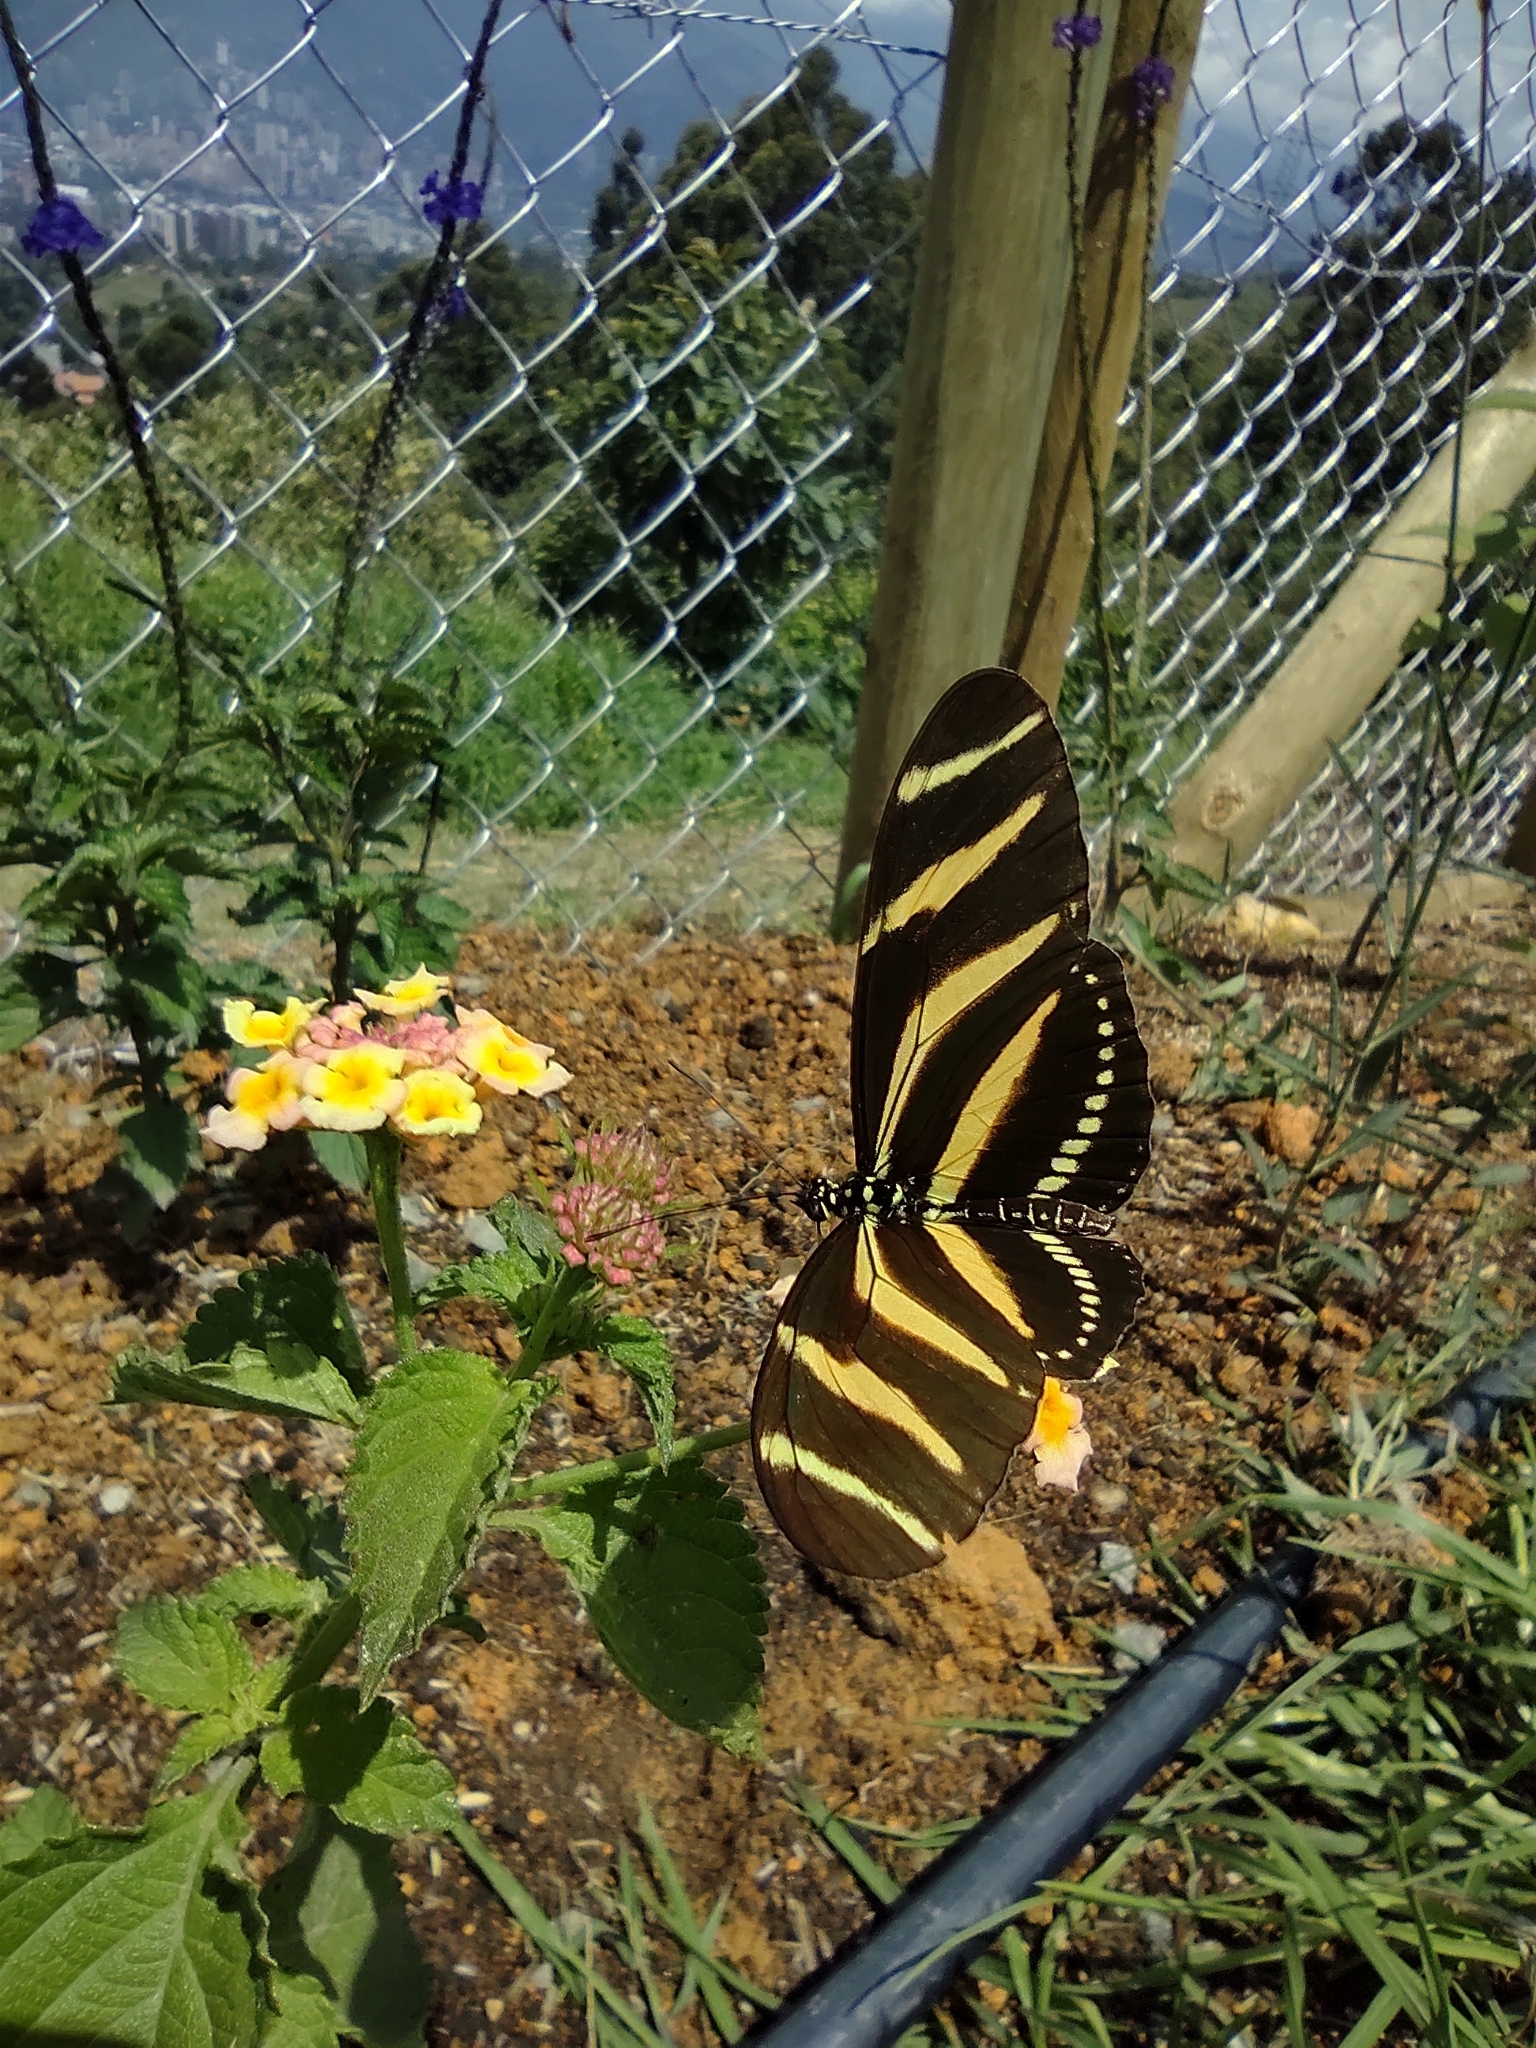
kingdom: Animalia
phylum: Arthropoda
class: Insecta
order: Lepidoptera
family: Nymphalidae
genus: Heliconius
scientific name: Heliconius charithonia
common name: Zebra long wing
